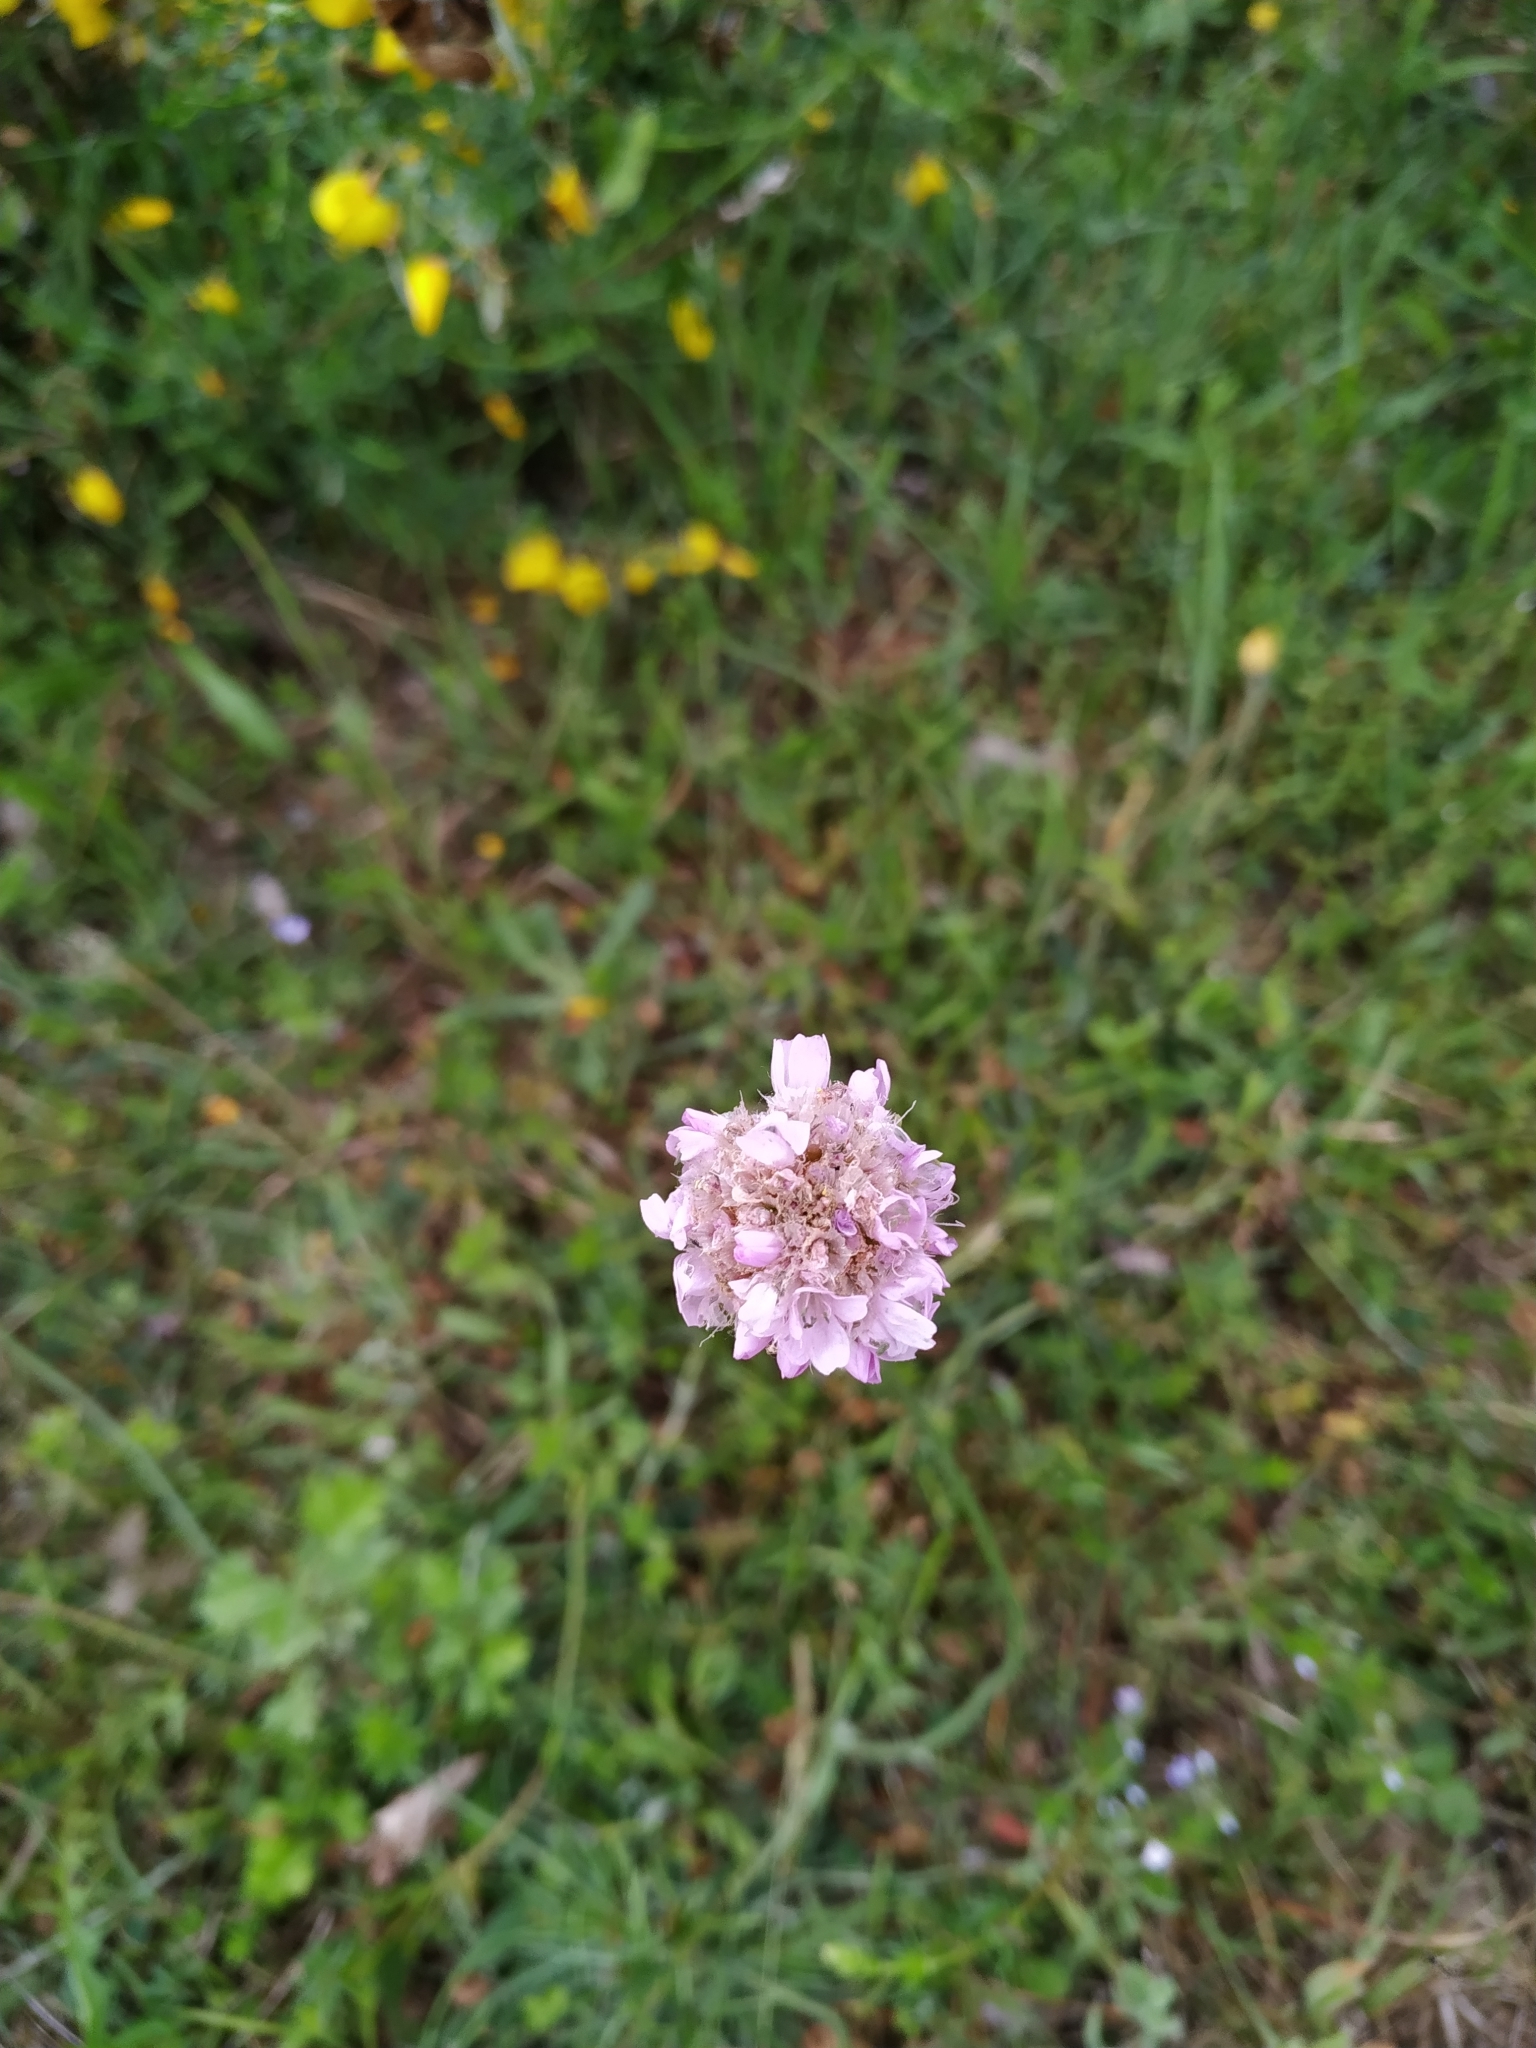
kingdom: Plantae
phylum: Tracheophyta
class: Magnoliopsida
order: Caryophyllales
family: Plumbaginaceae
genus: Armeria
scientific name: Armeria maritima
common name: Thrift
